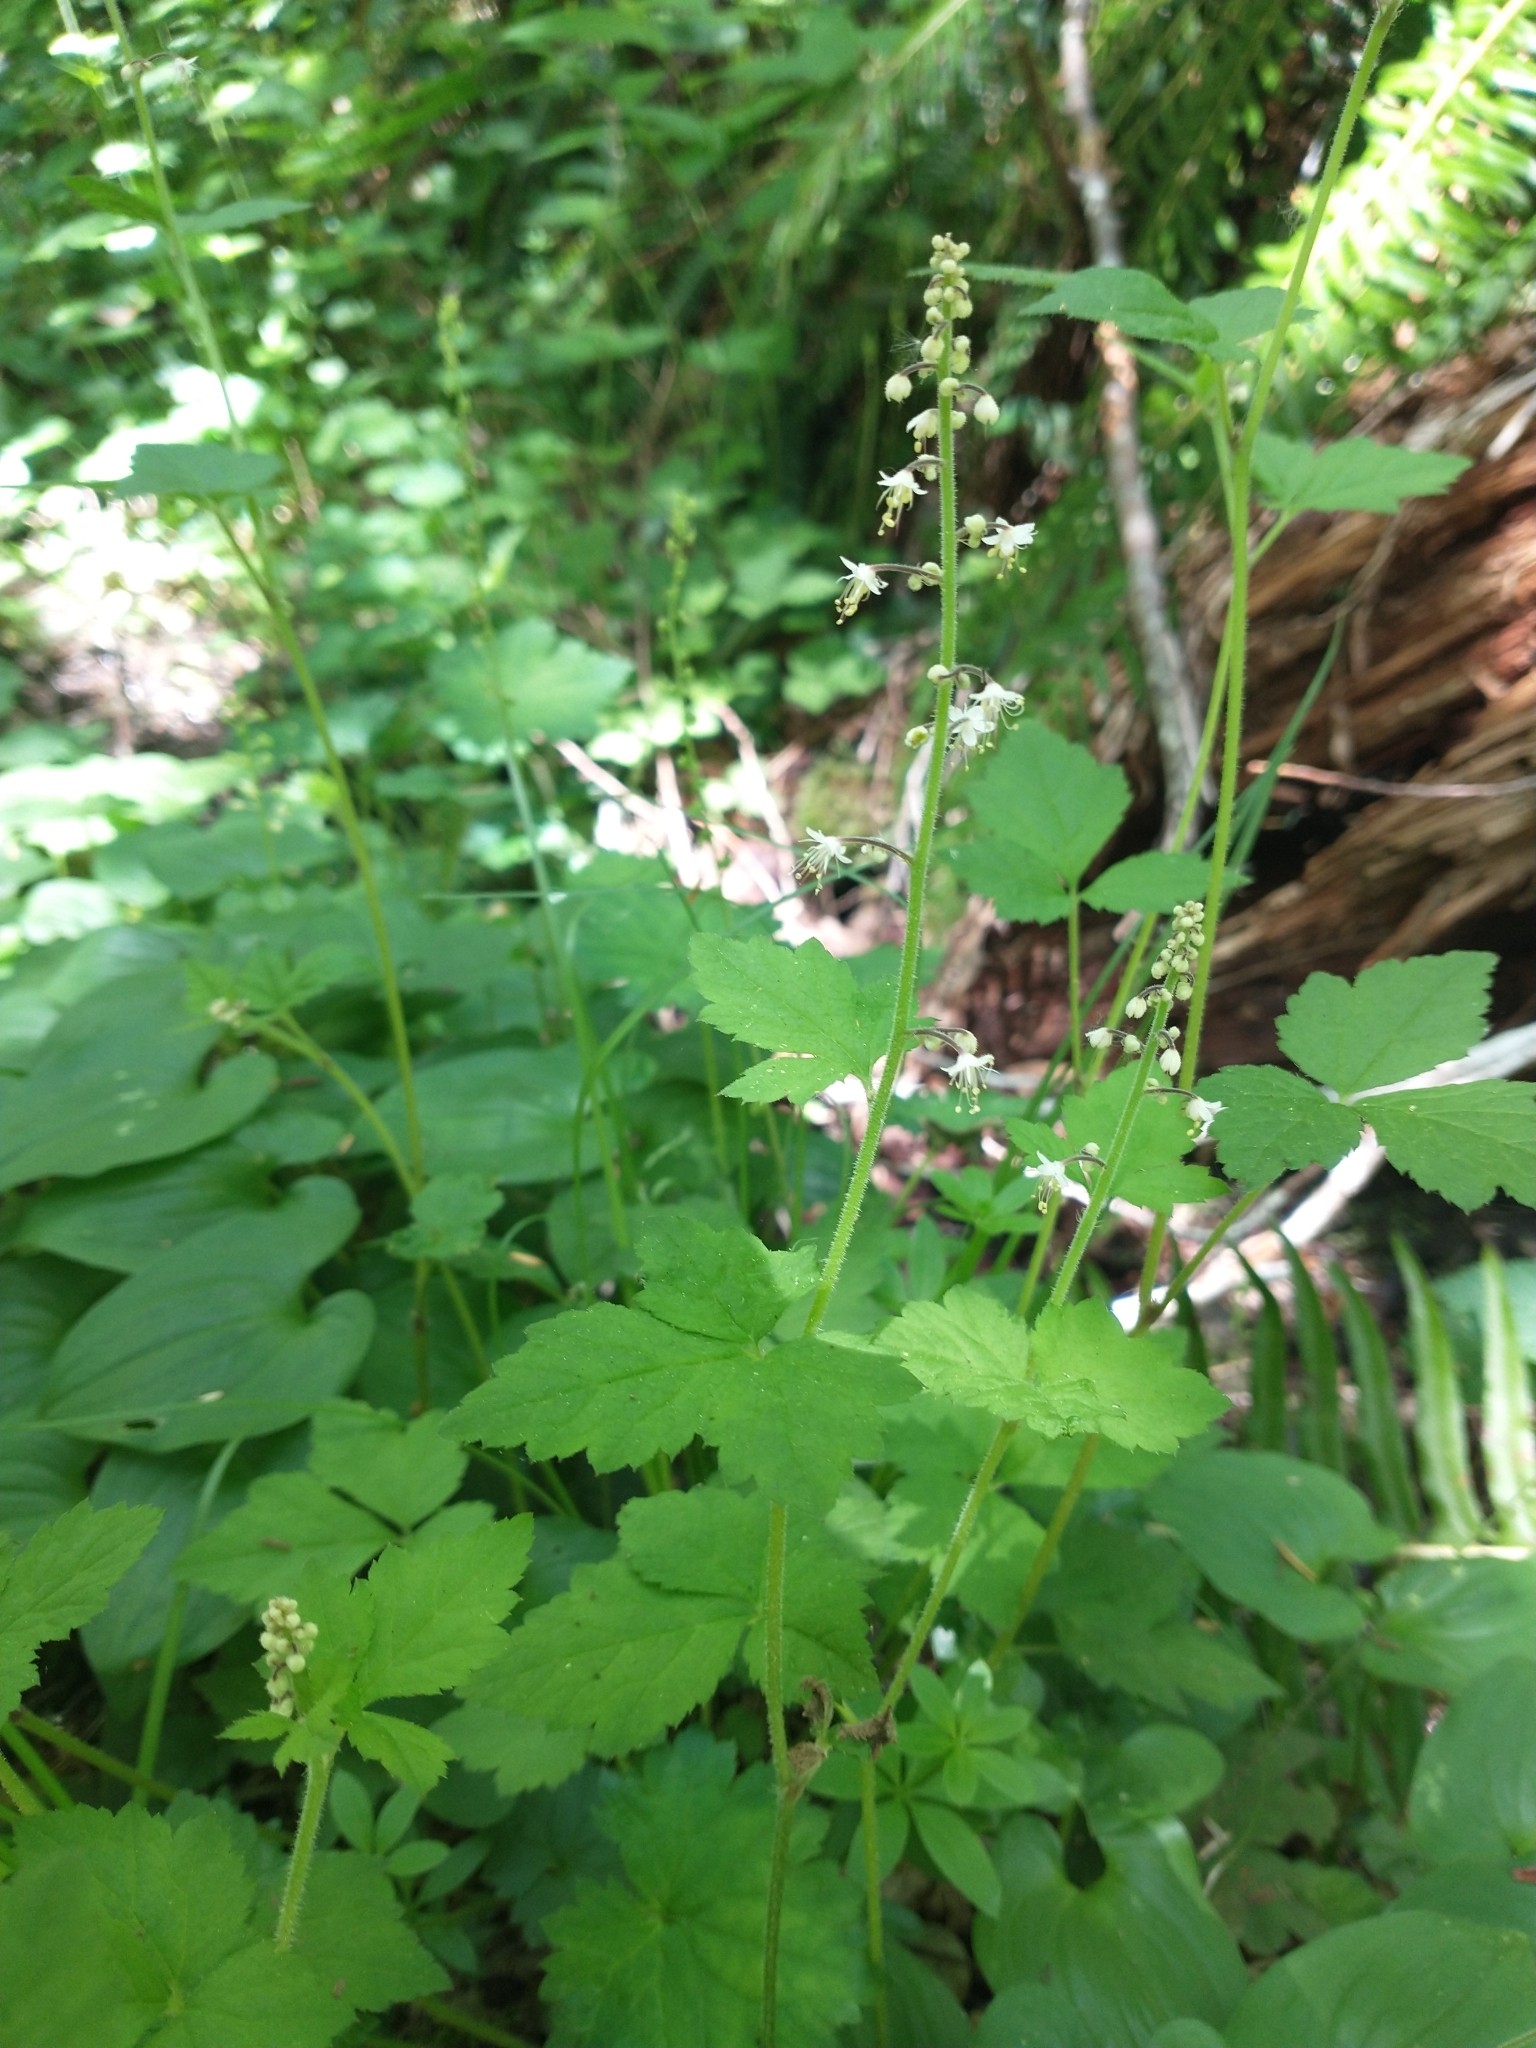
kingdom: Plantae
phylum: Tracheophyta
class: Magnoliopsida
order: Saxifragales
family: Saxifragaceae
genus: Tiarella
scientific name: Tiarella trifoliata
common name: Sugar-scoop
